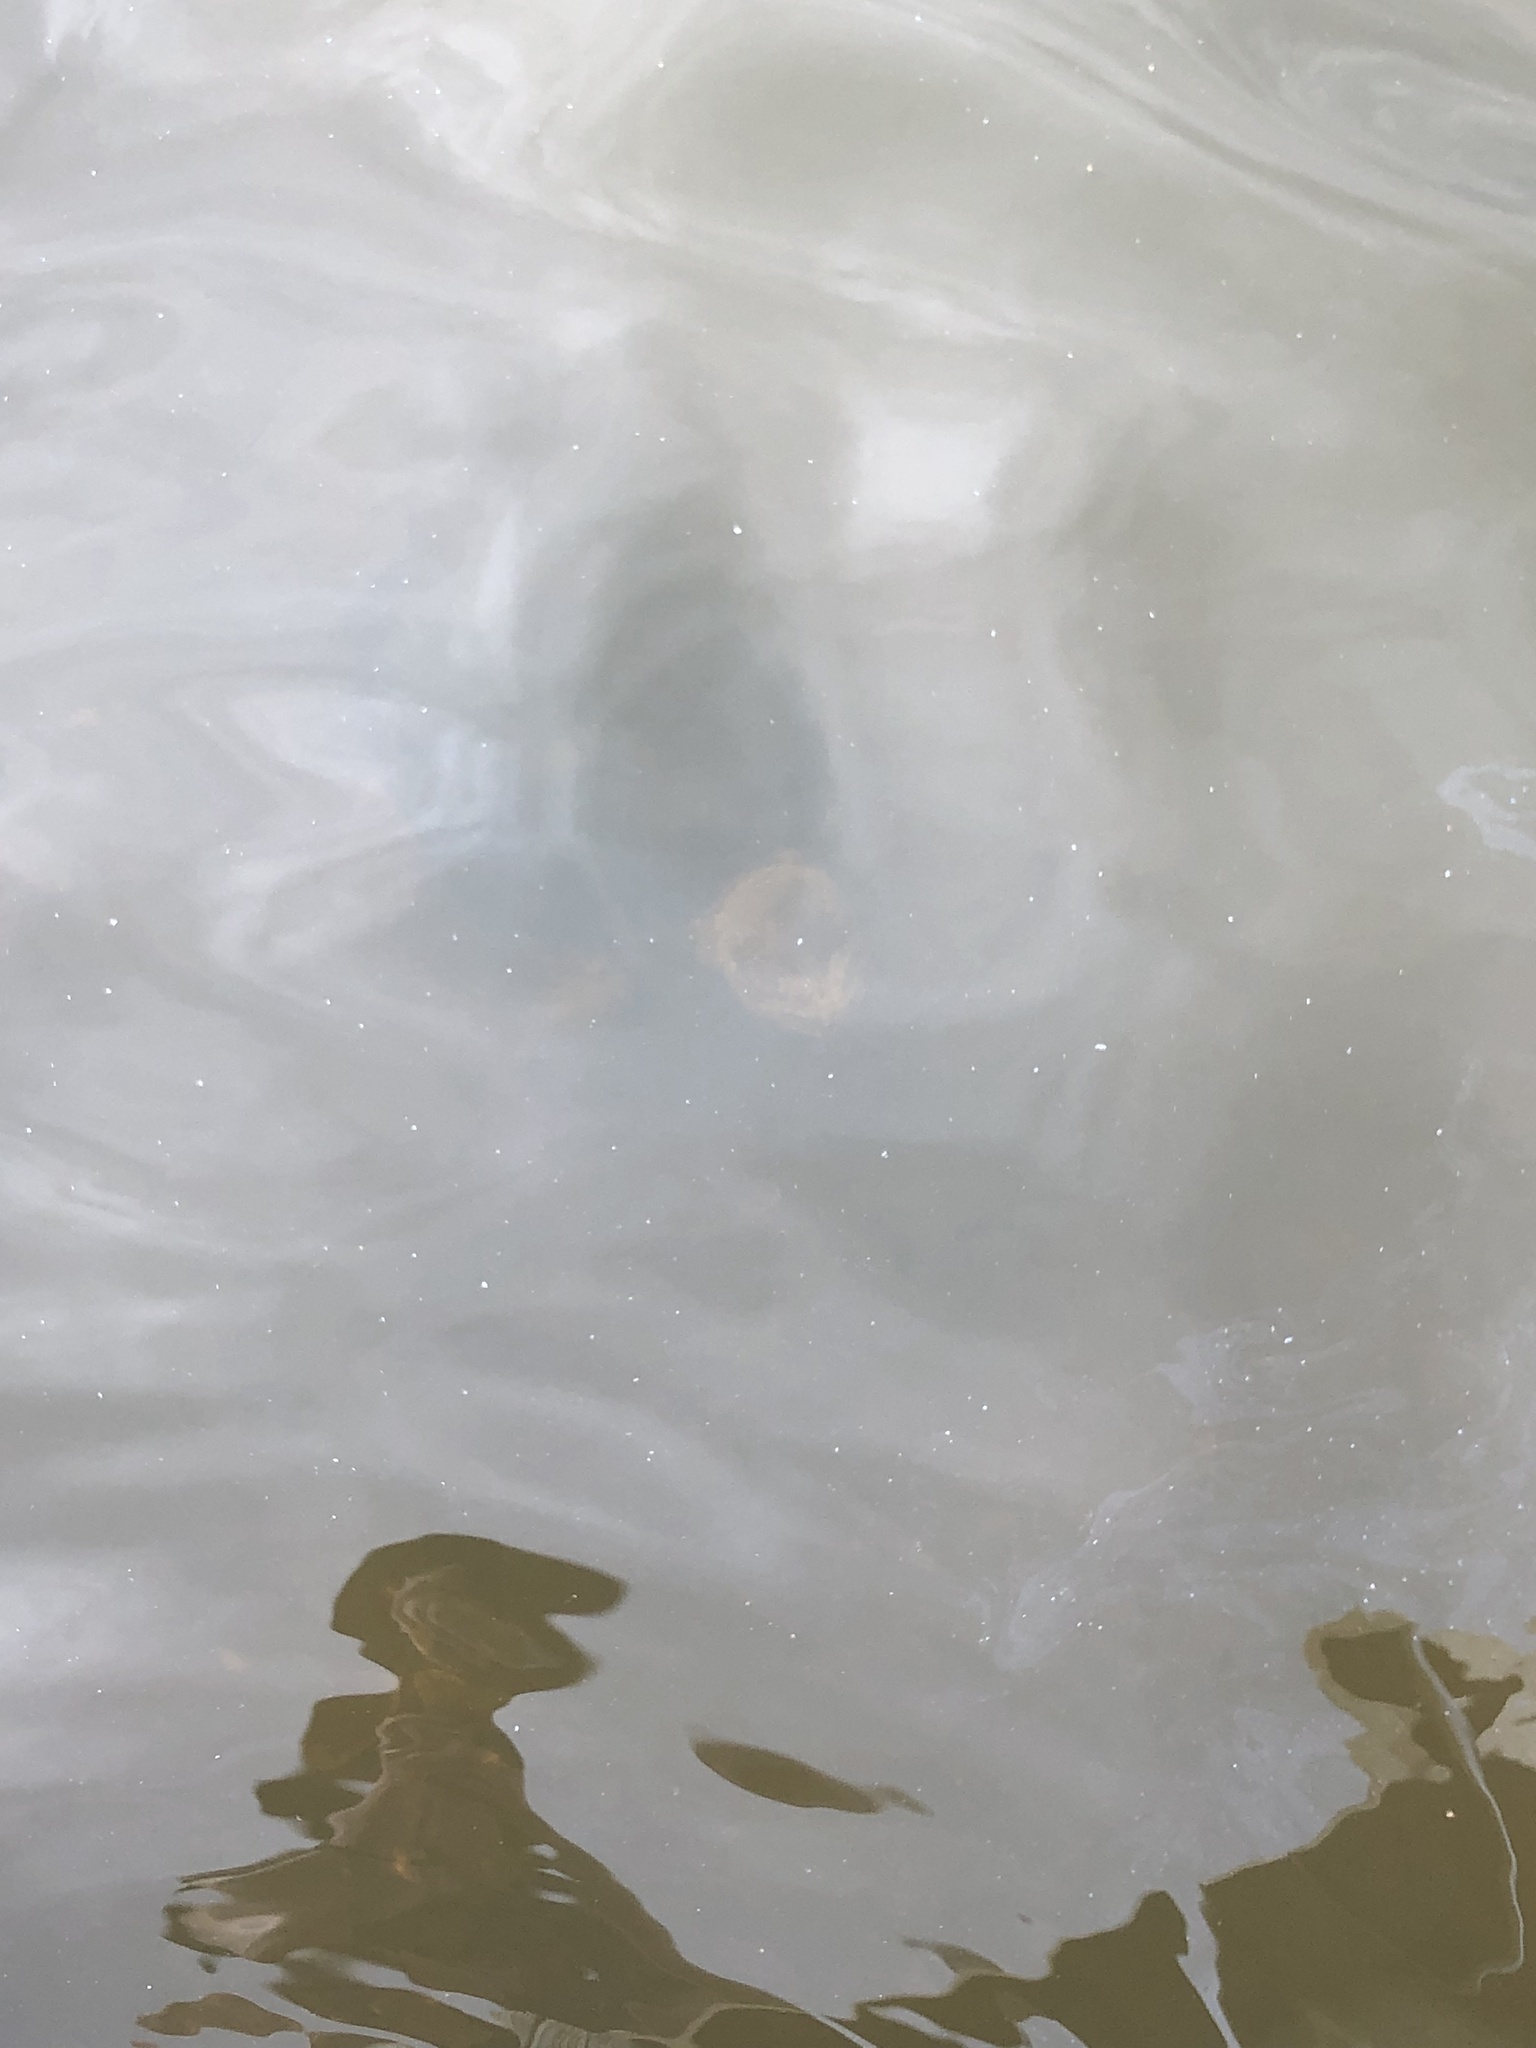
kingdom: Animalia
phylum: Chordata
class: Testudines
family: Chelydridae
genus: Chelydra
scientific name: Chelydra serpentina
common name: Common snapping turtle
